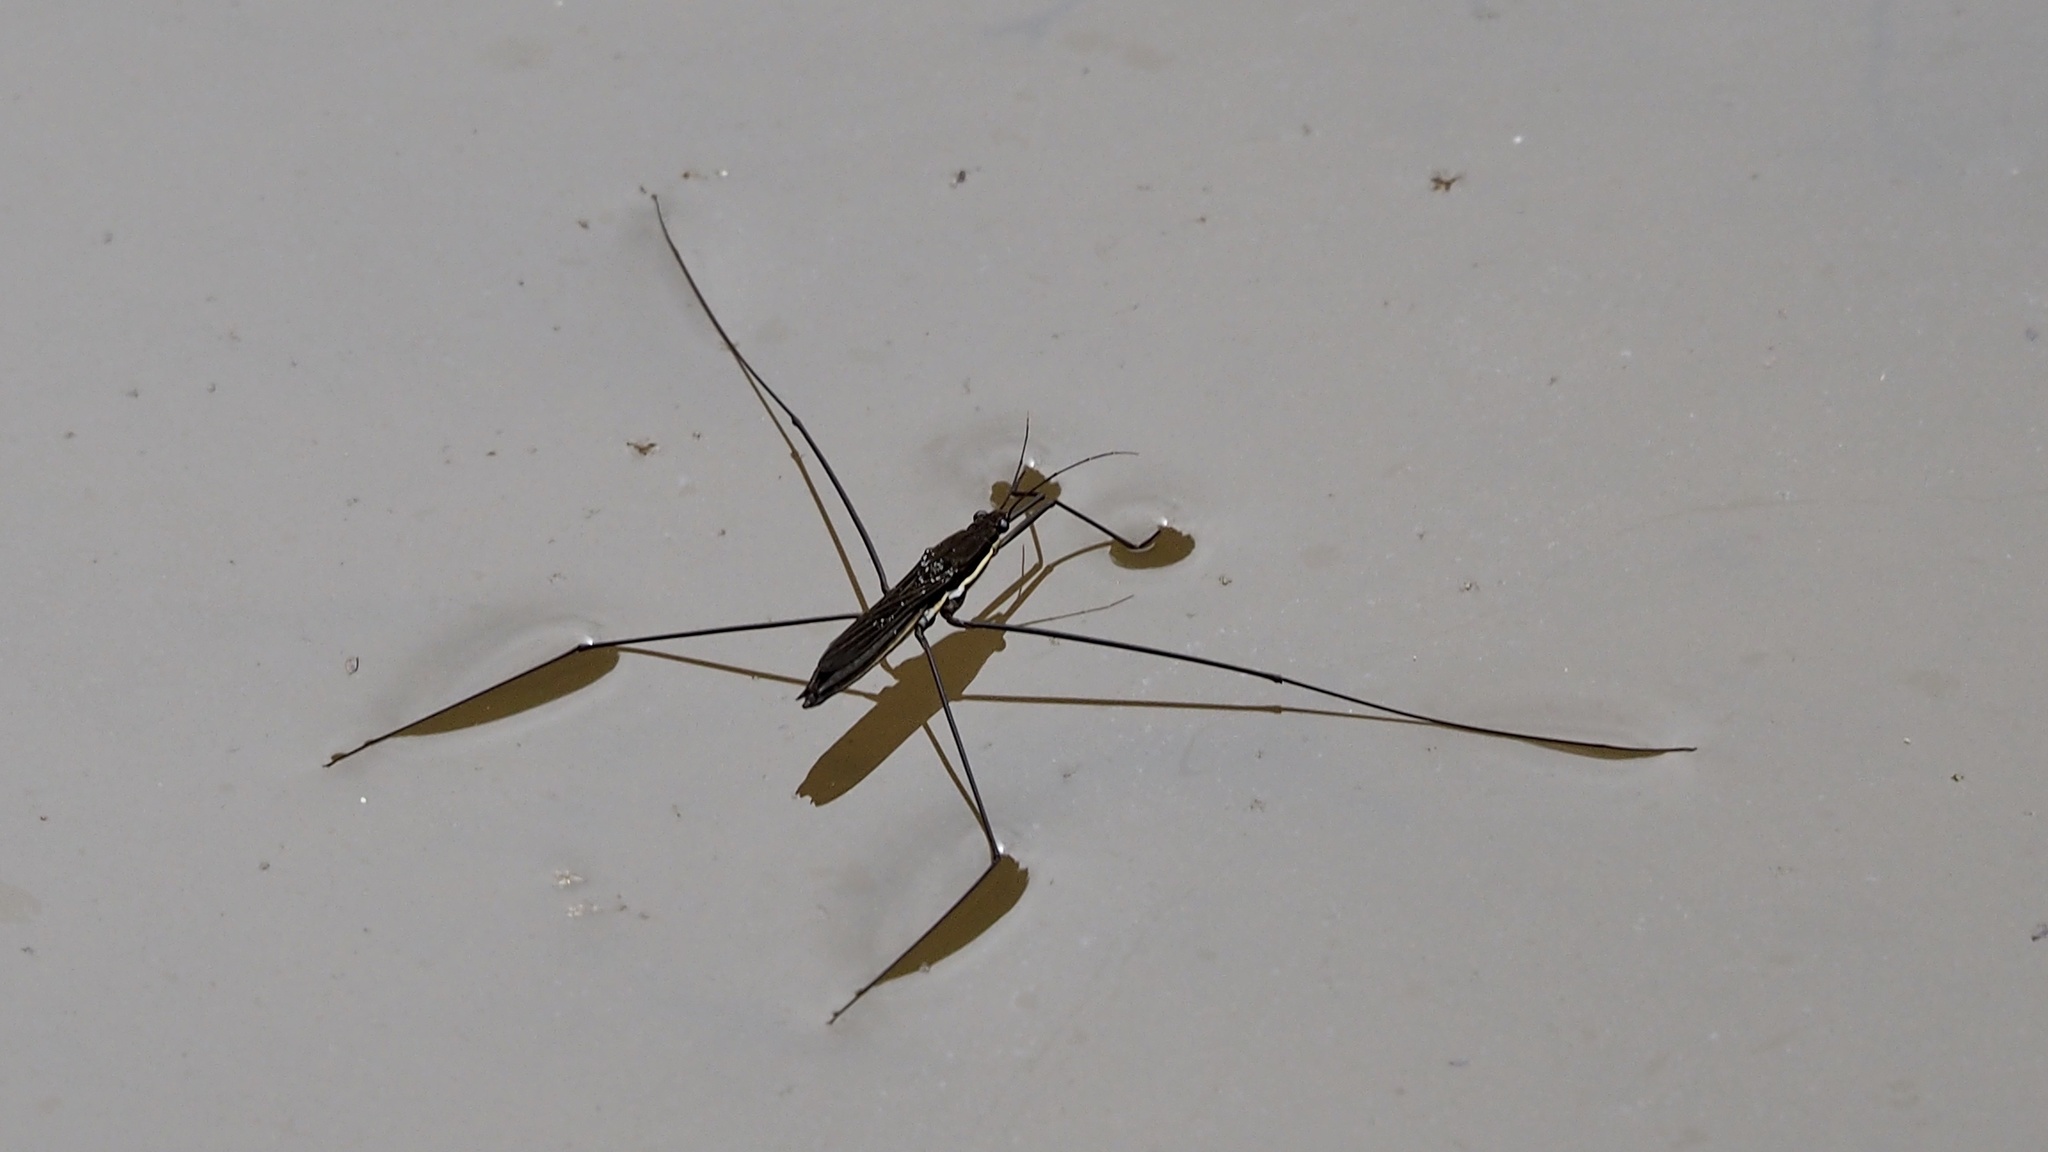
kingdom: Animalia
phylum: Arthropoda
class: Insecta
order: Hemiptera
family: Gerridae
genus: Aquarius
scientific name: Aquarius elongatus
